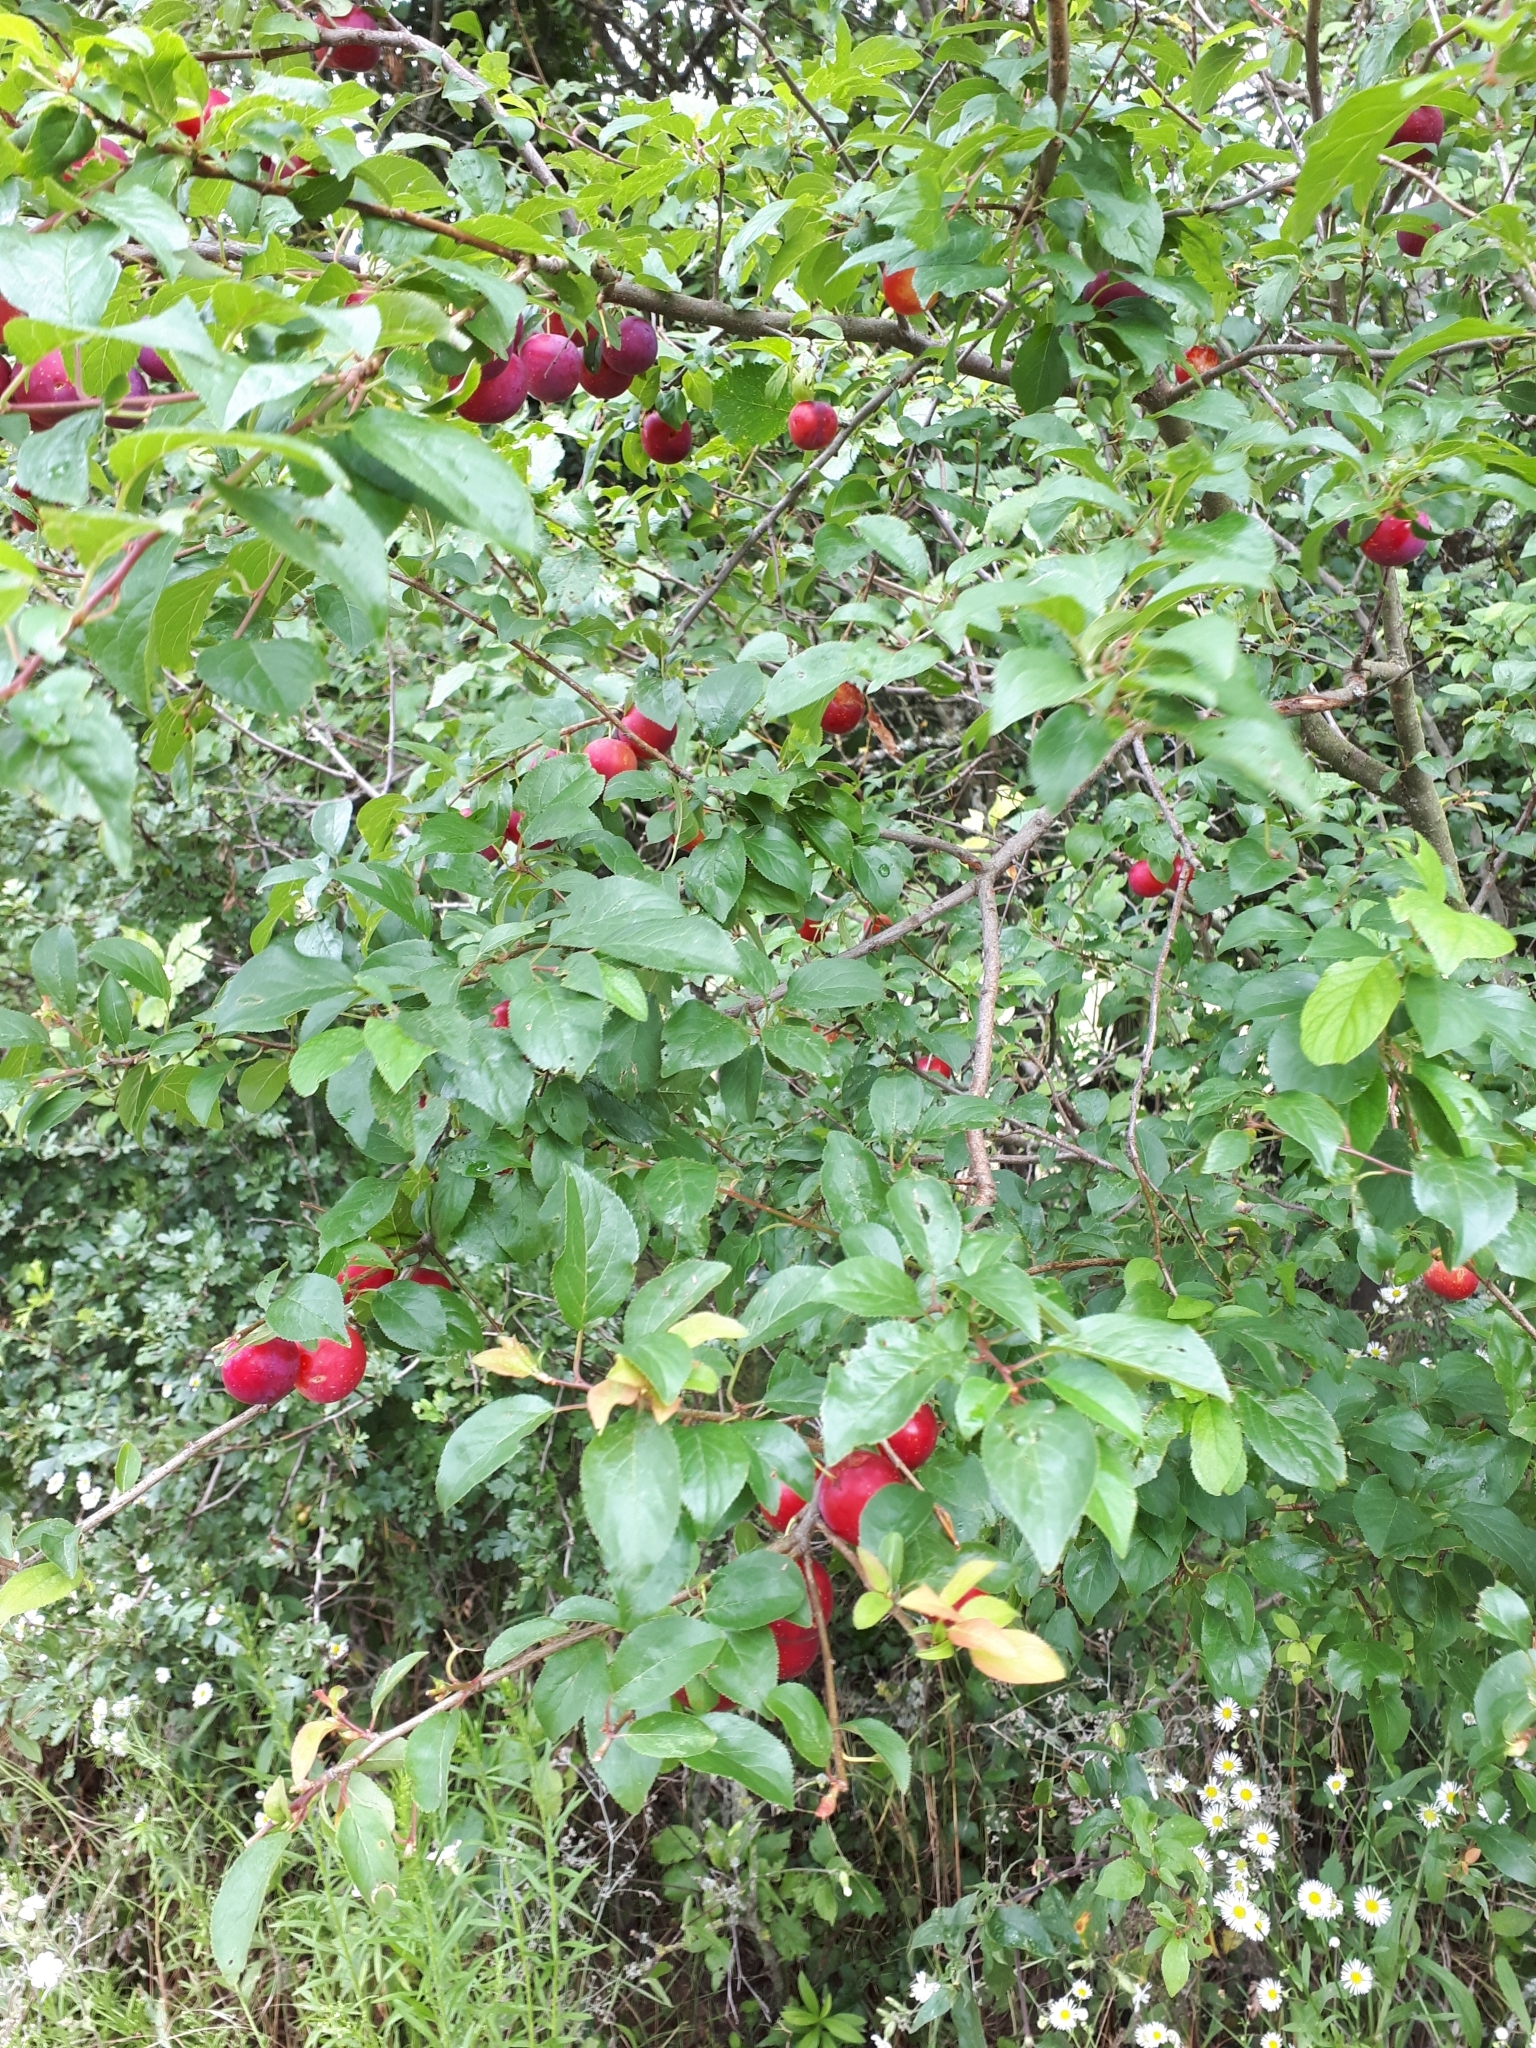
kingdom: Plantae
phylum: Tracheophyta
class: Magnoliopsida
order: Rosales
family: Rosaceae
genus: Prunus
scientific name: Prunus cerasifera
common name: Cherry plum
